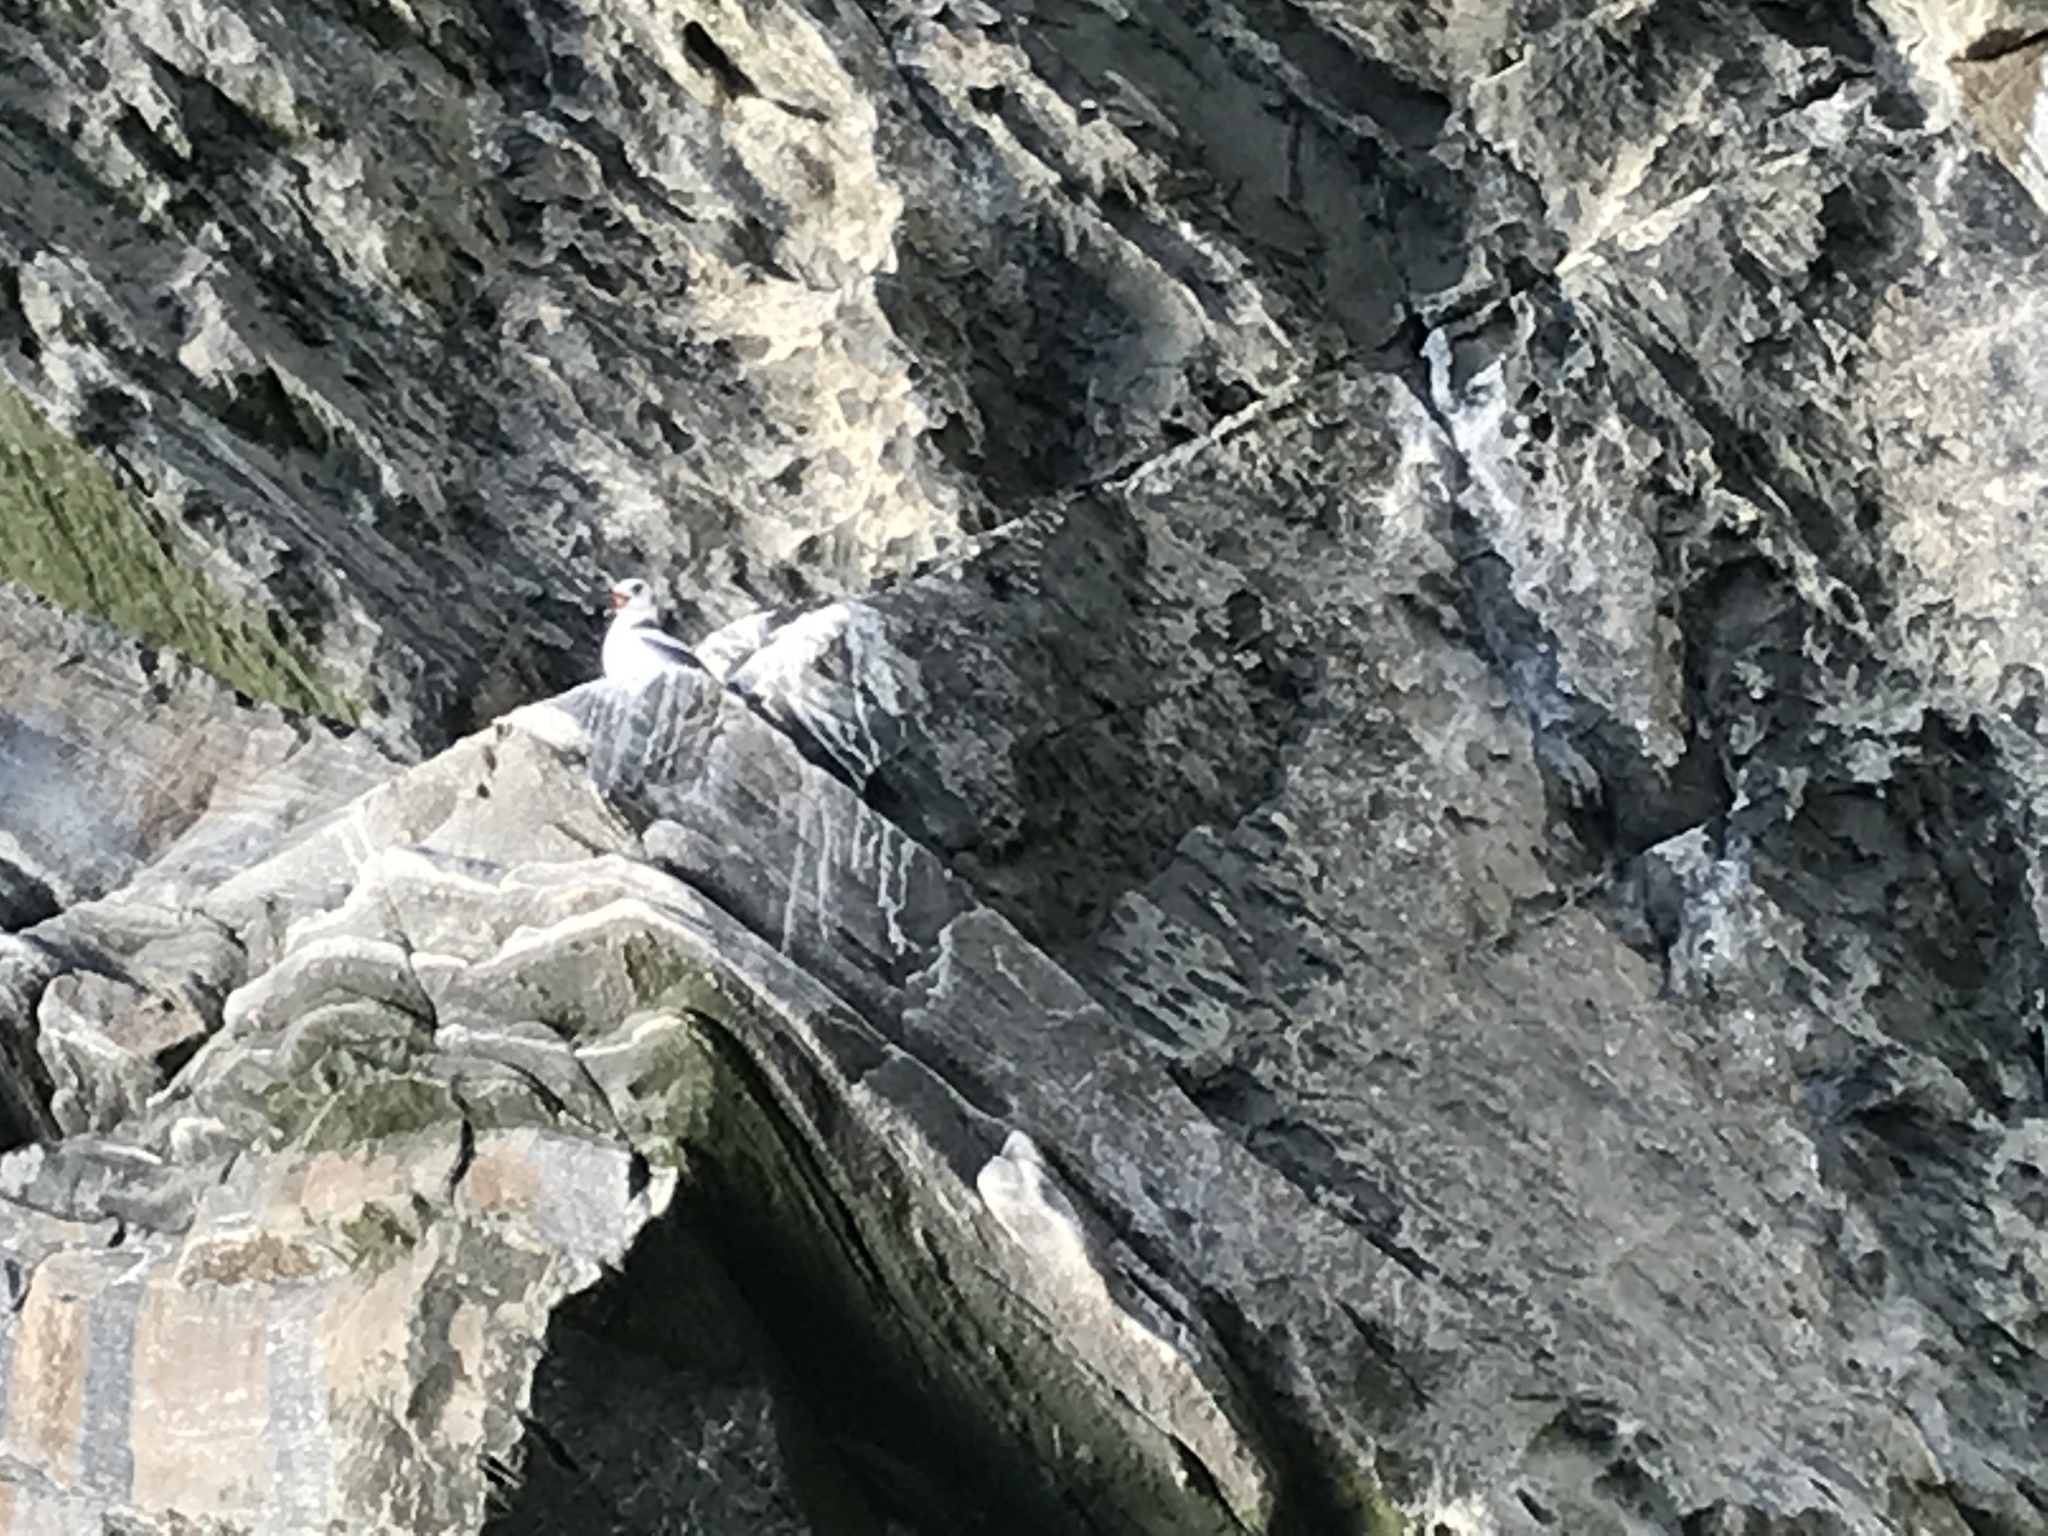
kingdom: Animalia
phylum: Chordata
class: Aves
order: Charadriiformes
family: Laridae
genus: Rissa
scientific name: Rissa tridactyla
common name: Black-legged kittiwake
